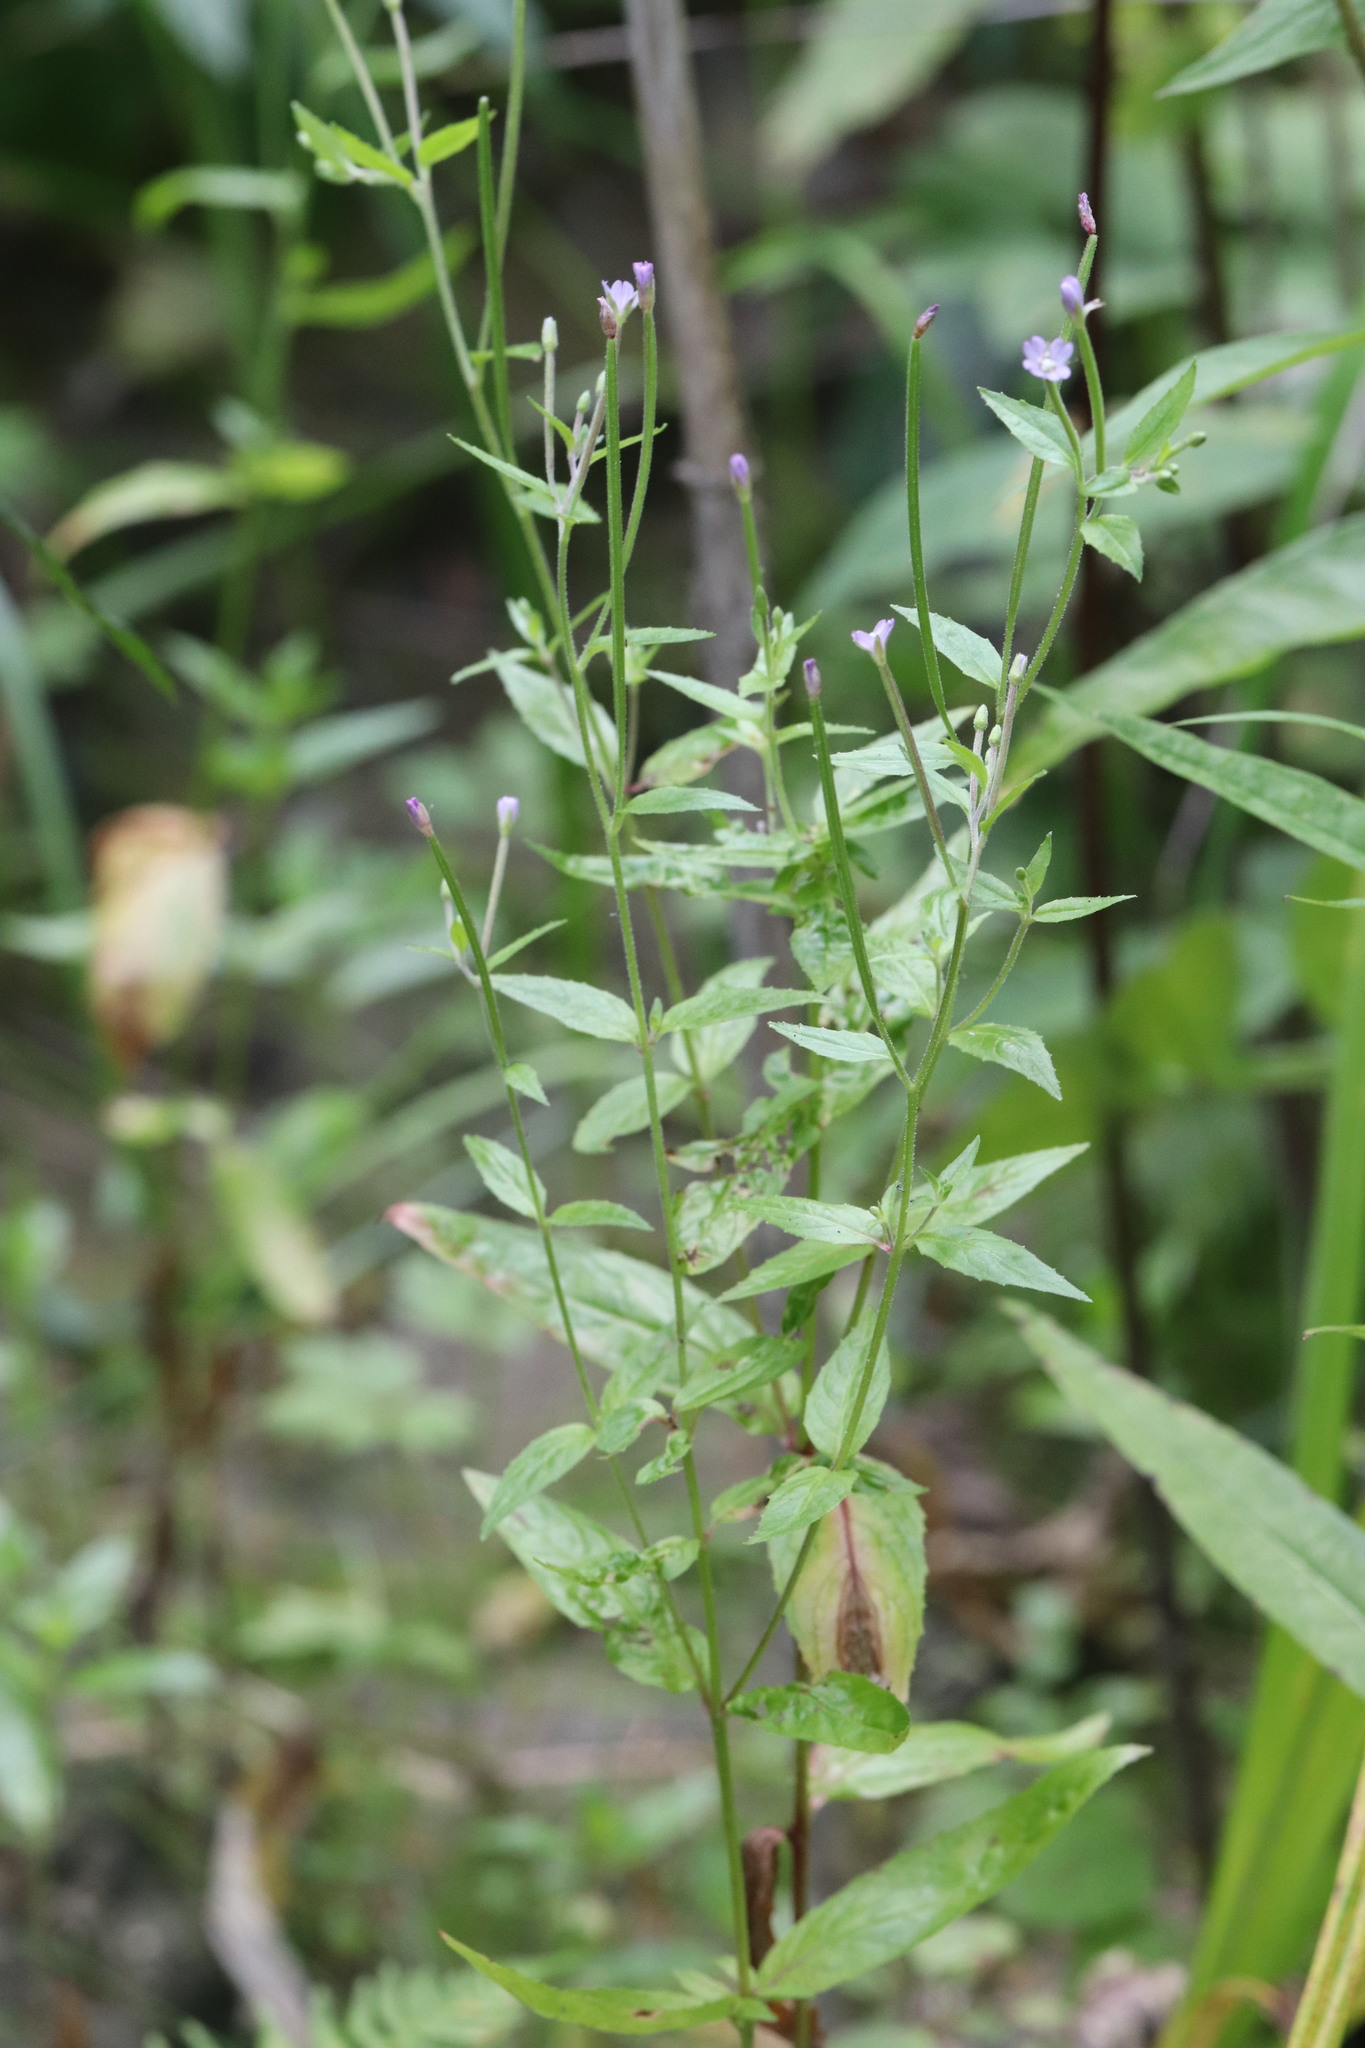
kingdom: Plantae
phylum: Tracheophyta
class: Magnoliopsida
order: Myrtales
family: Onagraceae
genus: Epilobium
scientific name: Epilobium ciliatum
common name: American willowherb
